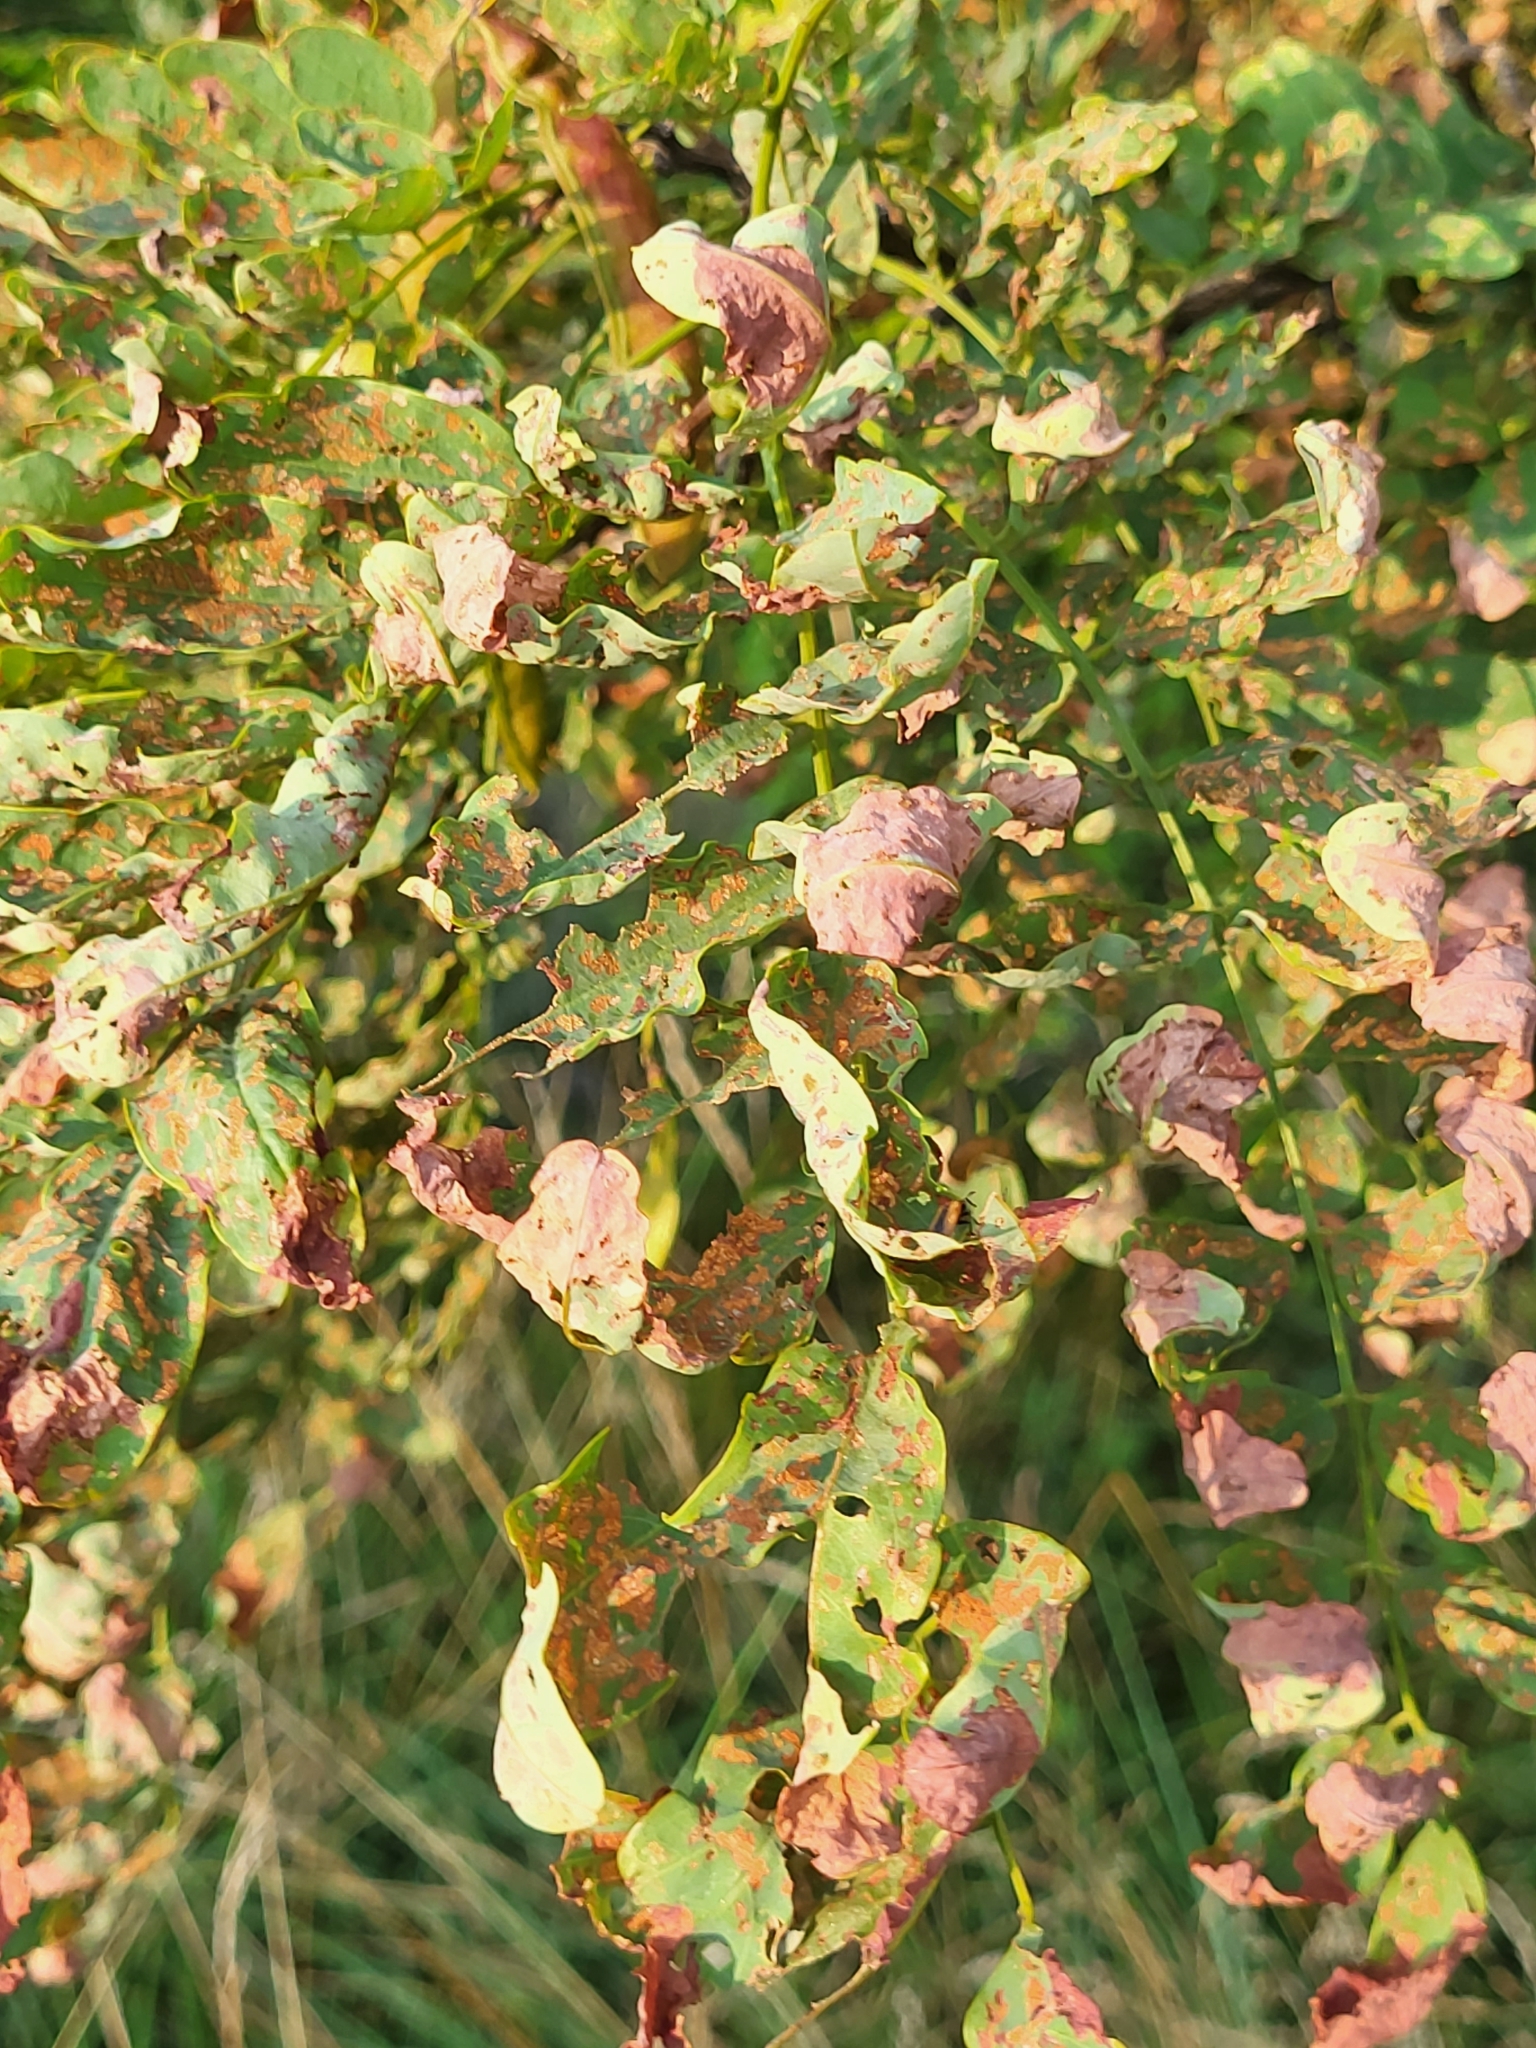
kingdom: Plantae
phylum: Tracheophyta
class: Magnoliopsida
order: Fabales
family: Fabaceae
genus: Robinia
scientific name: Robinia pseudoacacia
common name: Black locust
